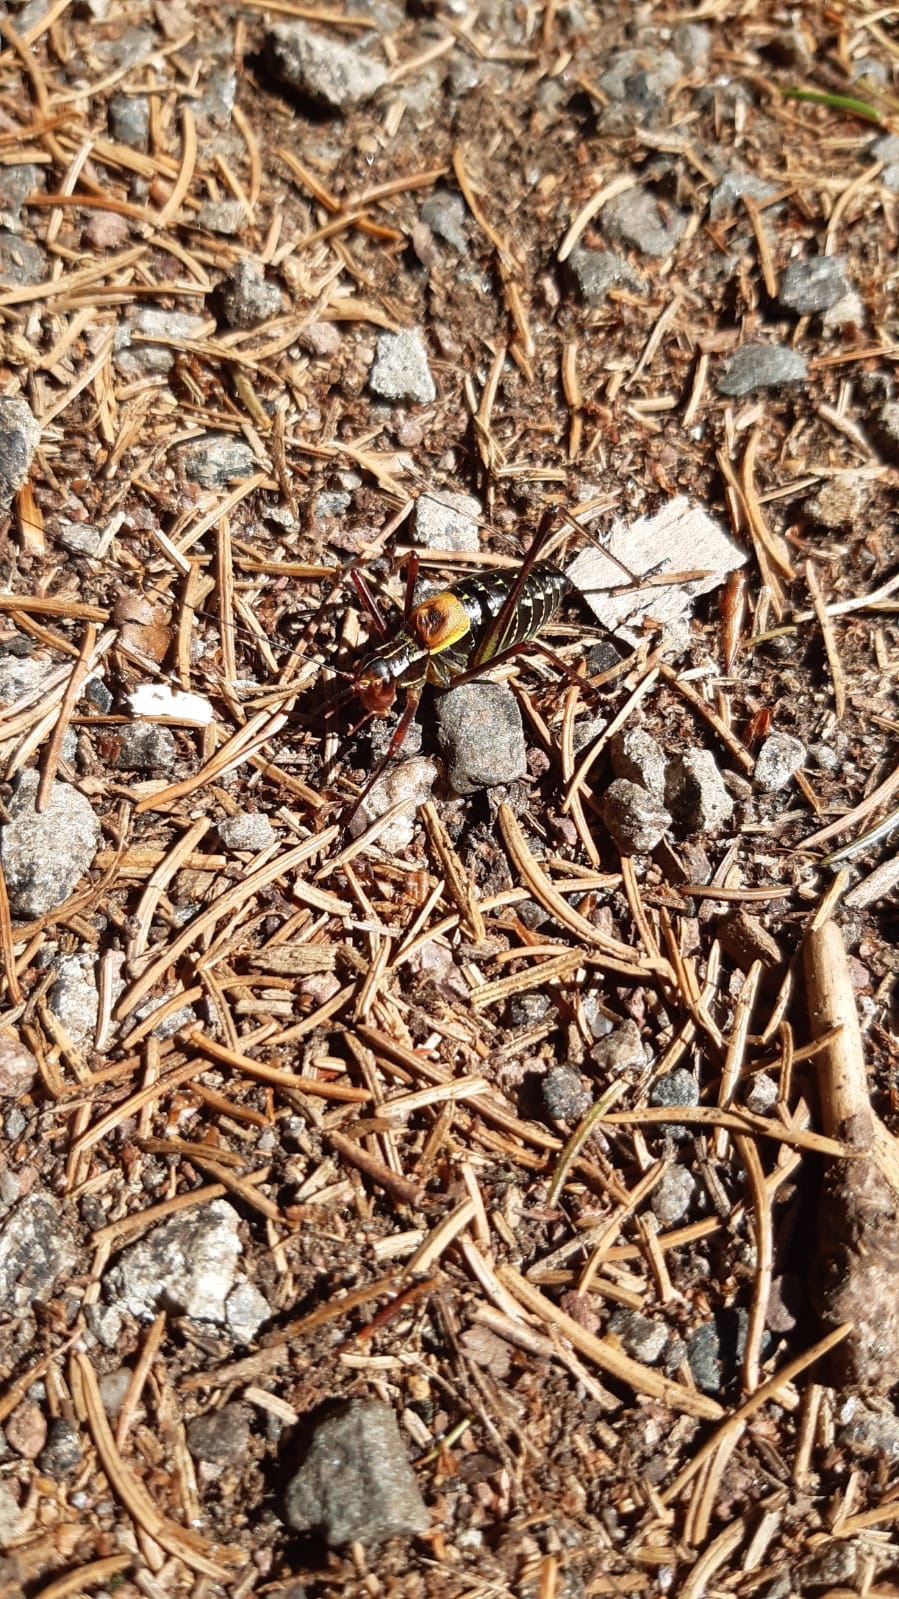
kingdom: Animalia
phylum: Arthropoda
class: Insecta
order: Orthoptera
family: Tettigoniidae
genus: Barbitistes
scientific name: Barbitistes constrictus
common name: Eastern saw-tailed bush cricket
